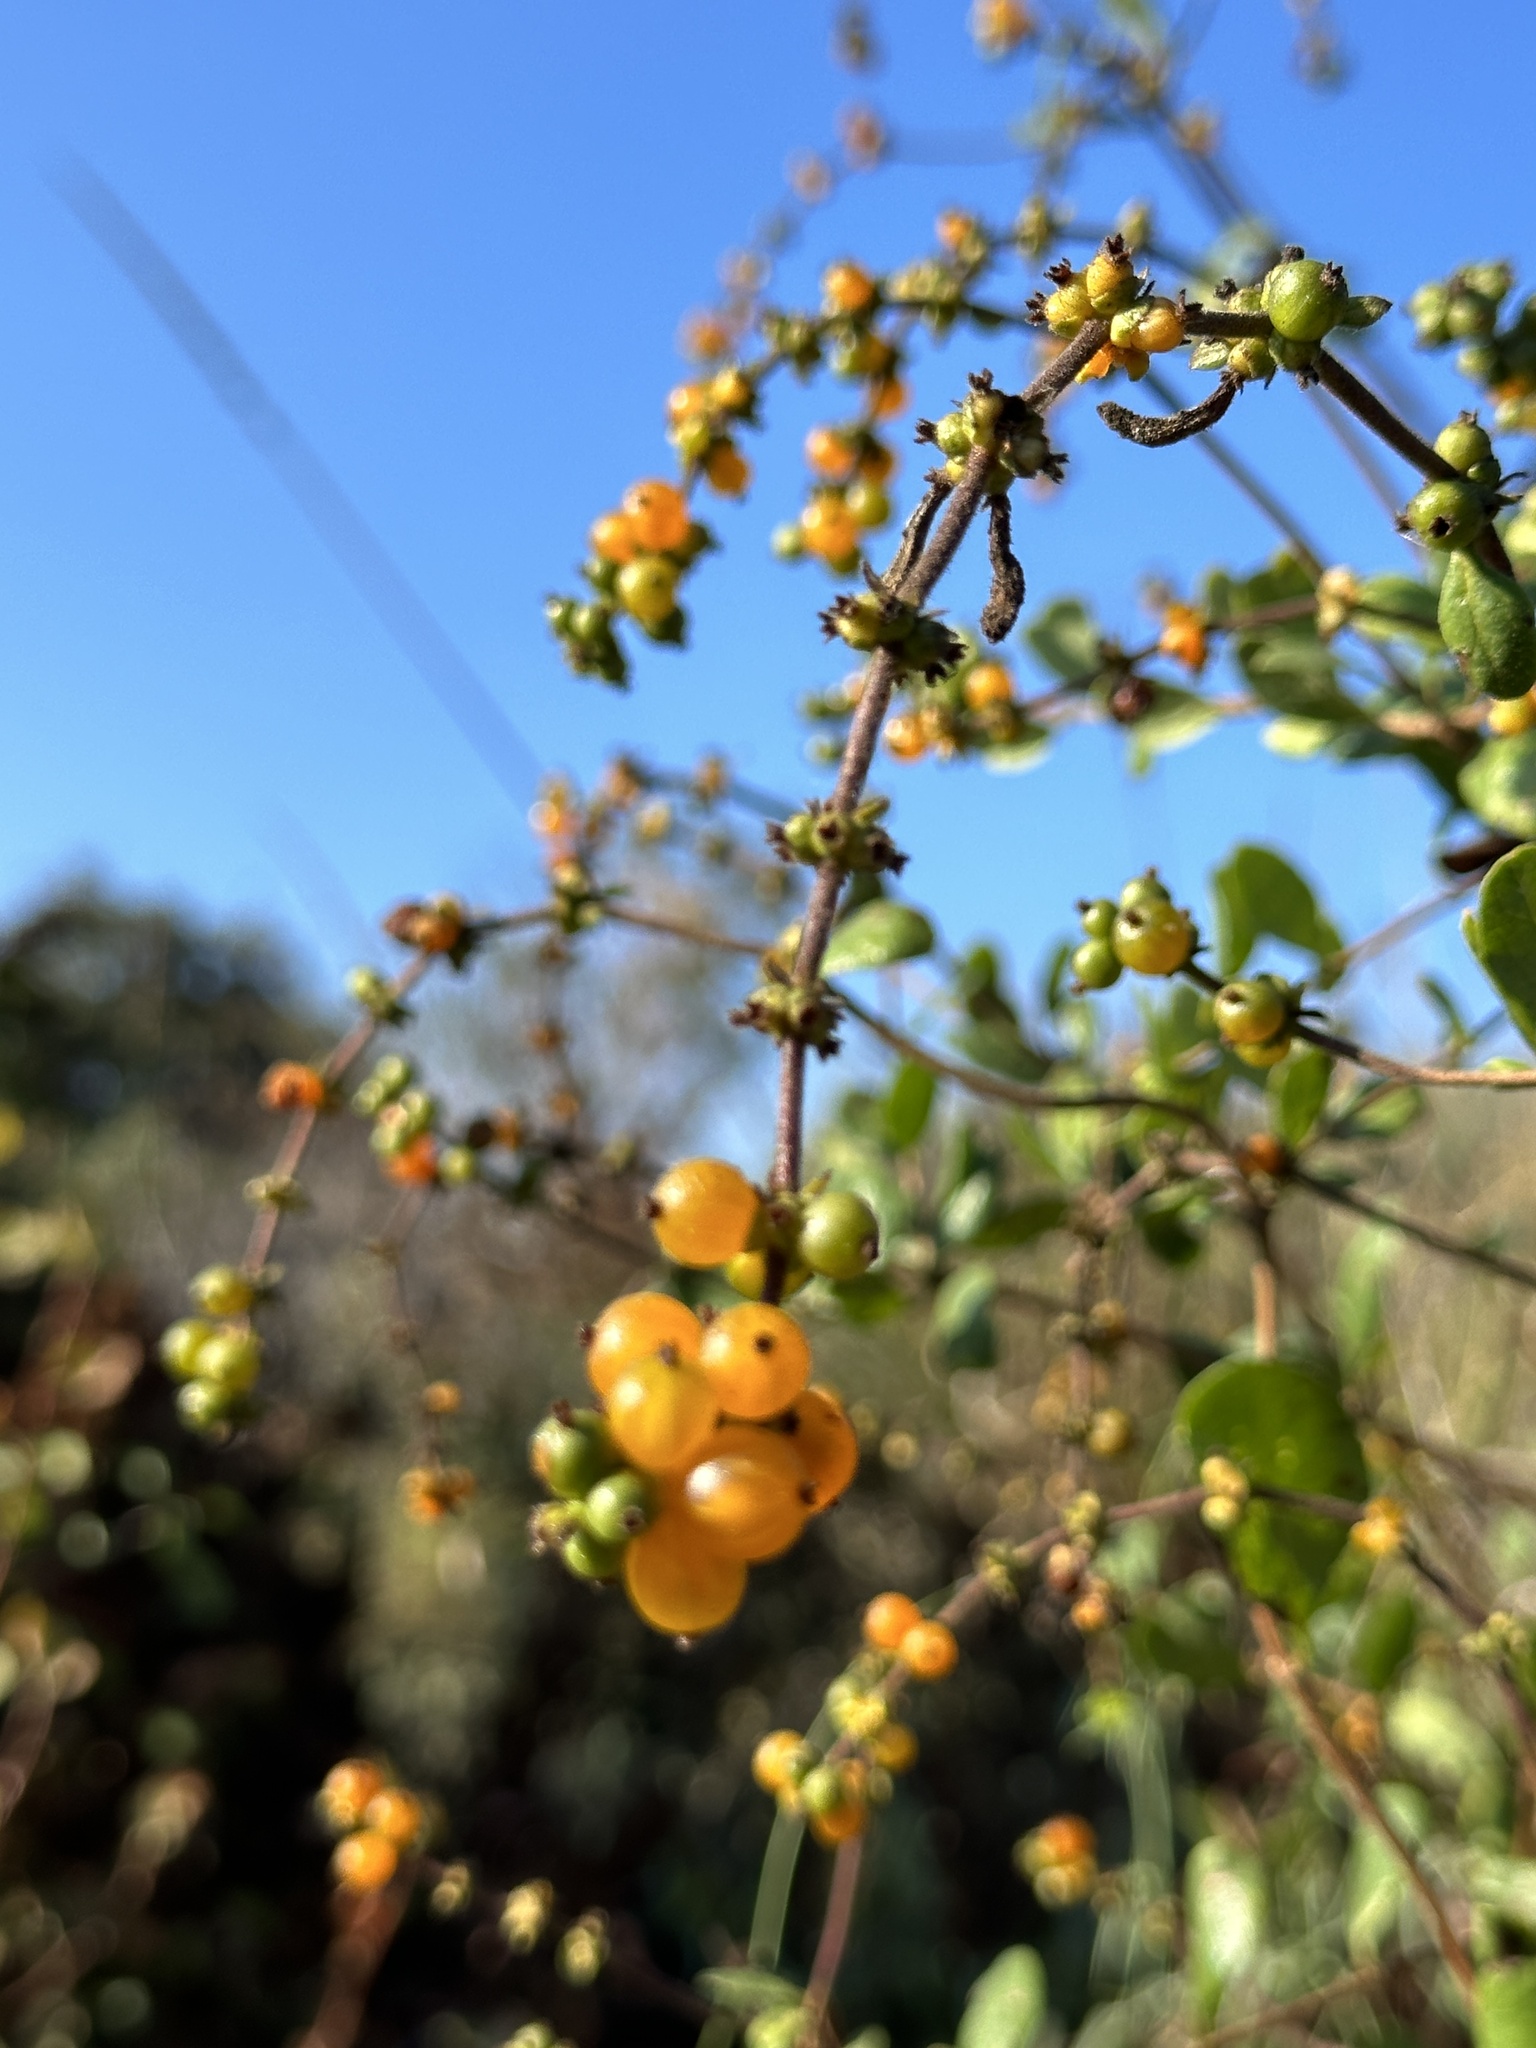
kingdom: Plantae
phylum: Tracheophyta
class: Magnoliopsida
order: Dipsacales
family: Caprifoliaceae
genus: Lonicera
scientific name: Lonicera subspicata
